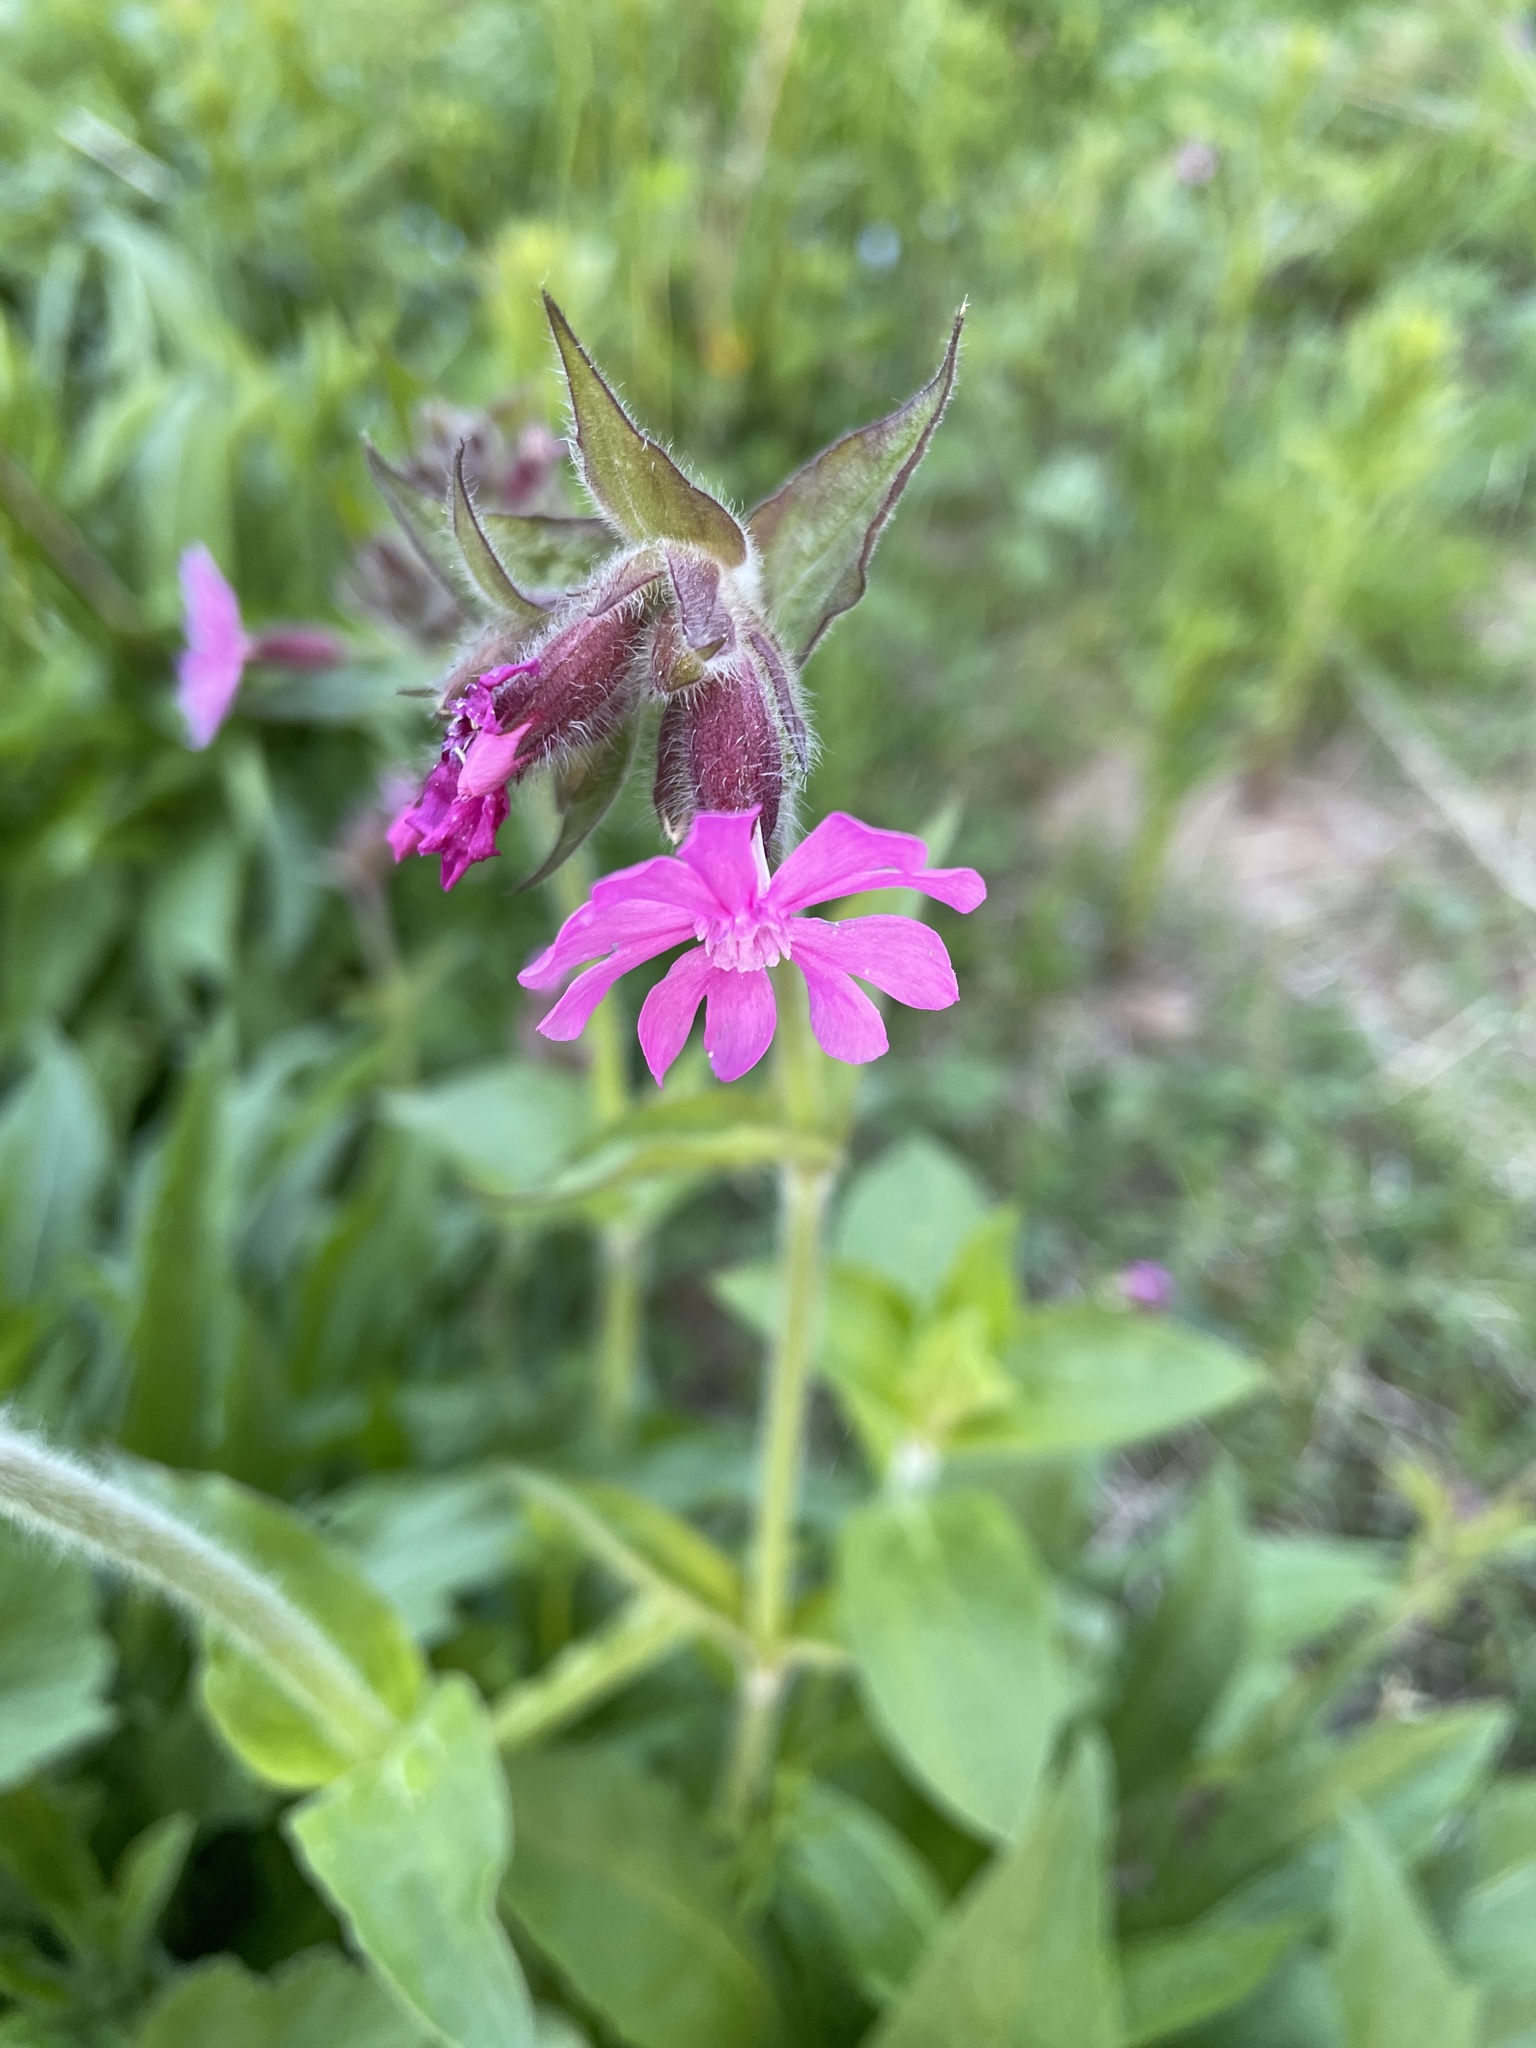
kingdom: Plantae
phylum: Tracheophyta
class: Magnoliopsida
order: Caryophyllales
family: Caryophyllaceae
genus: Silene
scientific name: Silene dioica
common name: Red campion
